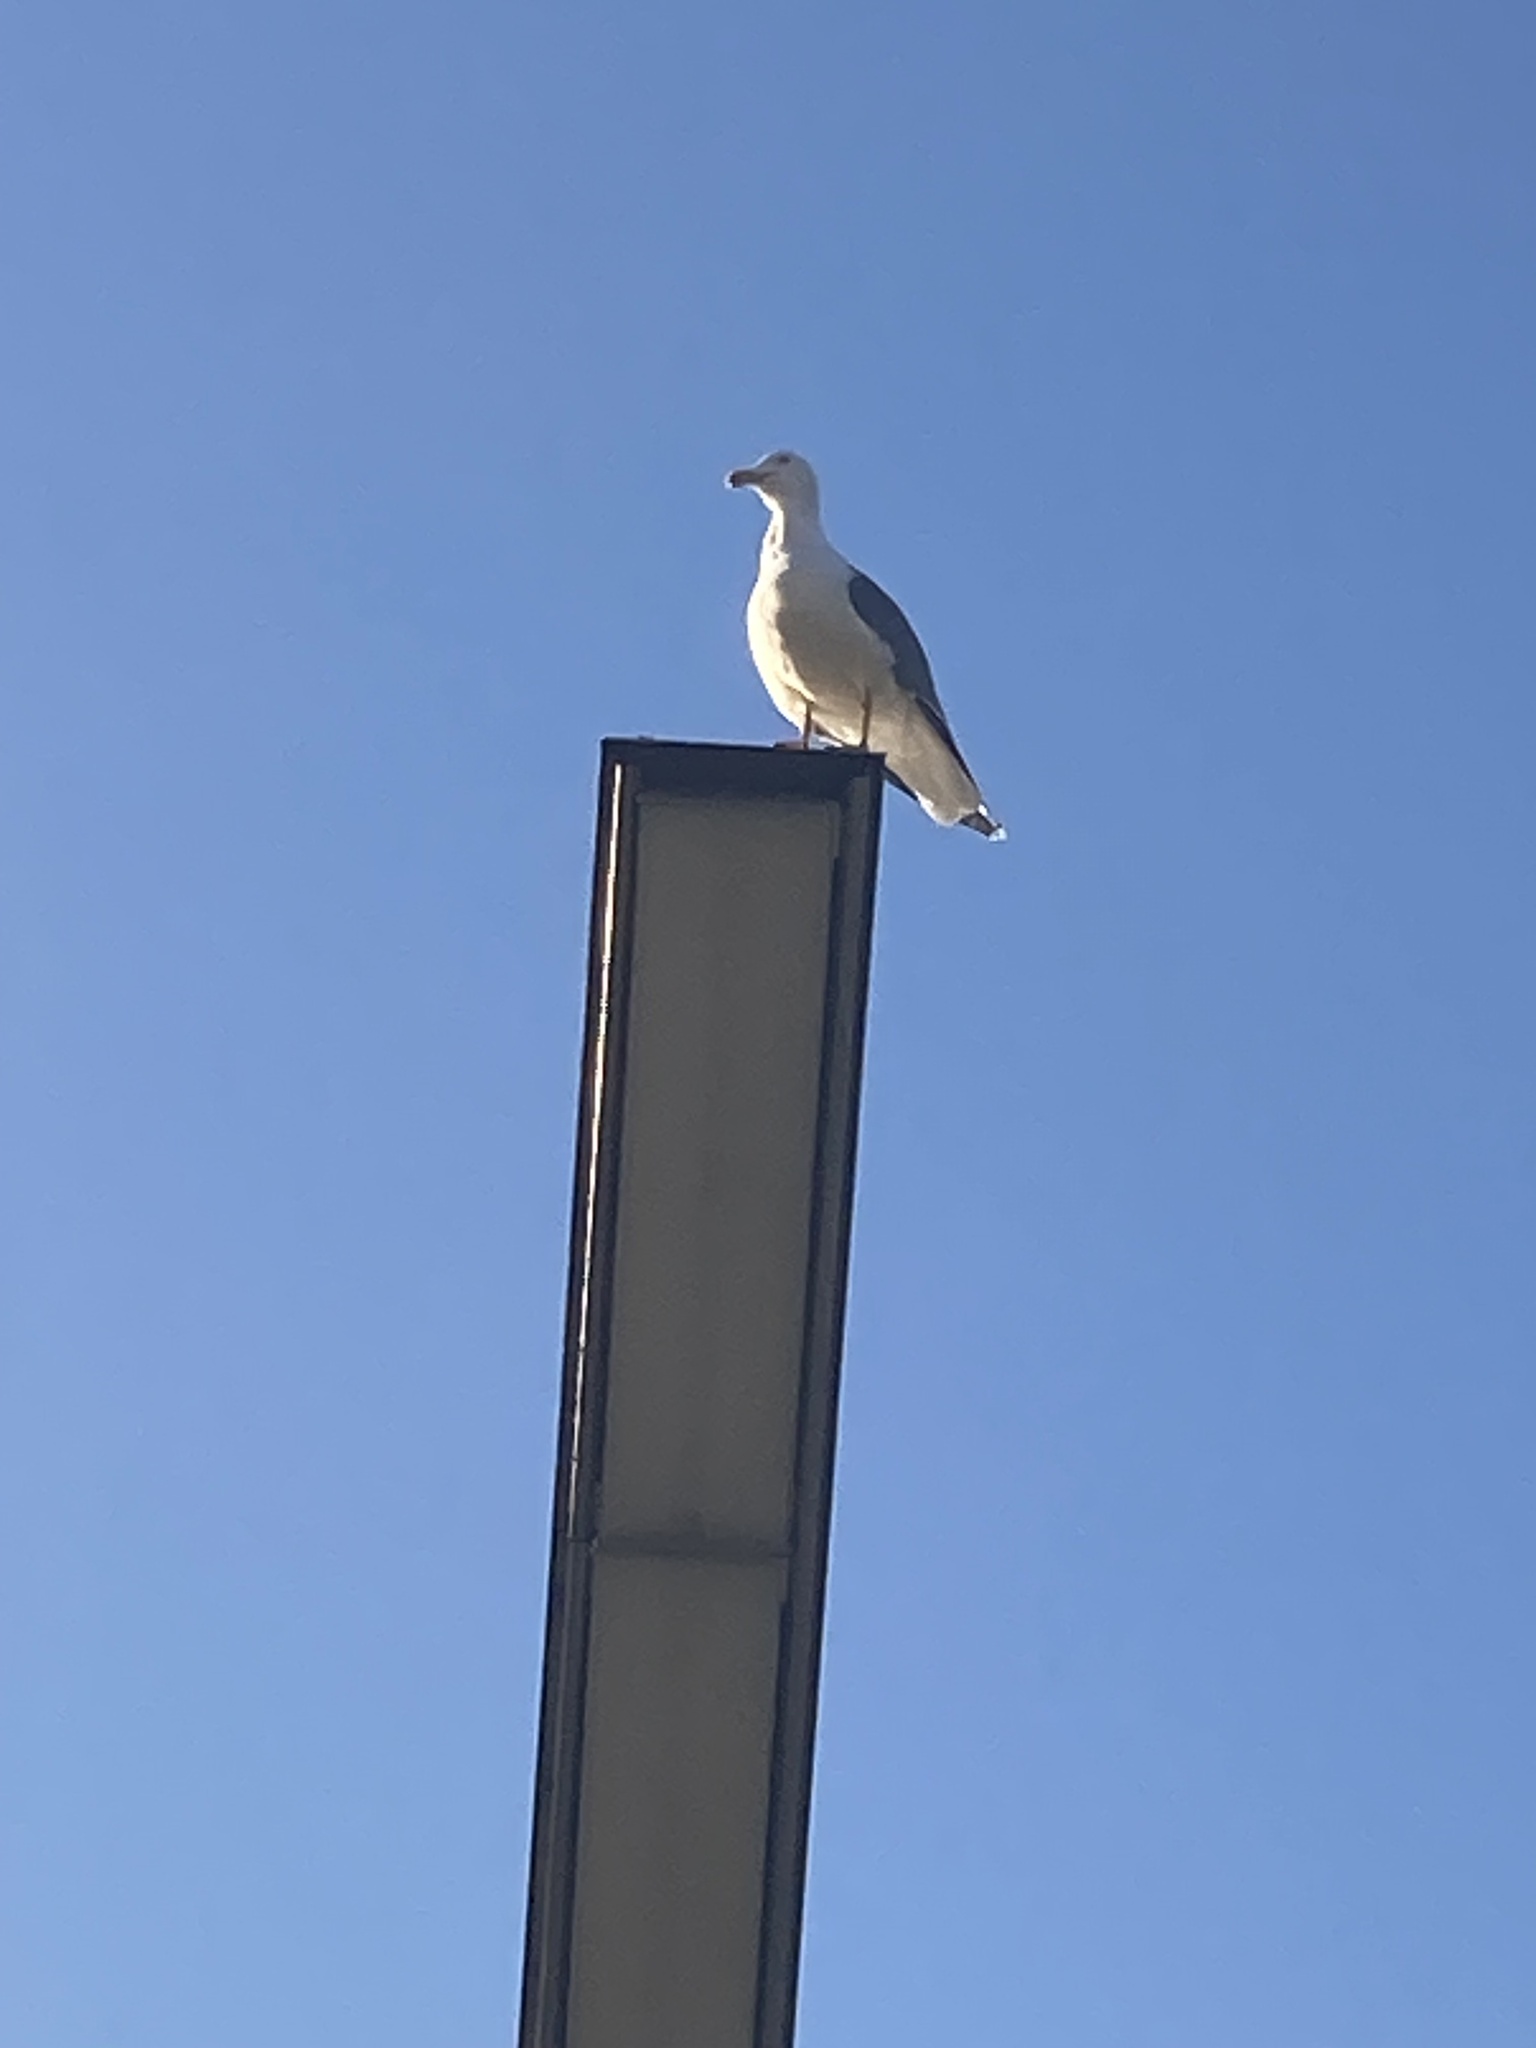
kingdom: Animalia
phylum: Chordata
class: Aves
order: Charadriiformes
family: Laridae
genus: Larus
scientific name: Larus michahellis
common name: Yellow-legged gull
